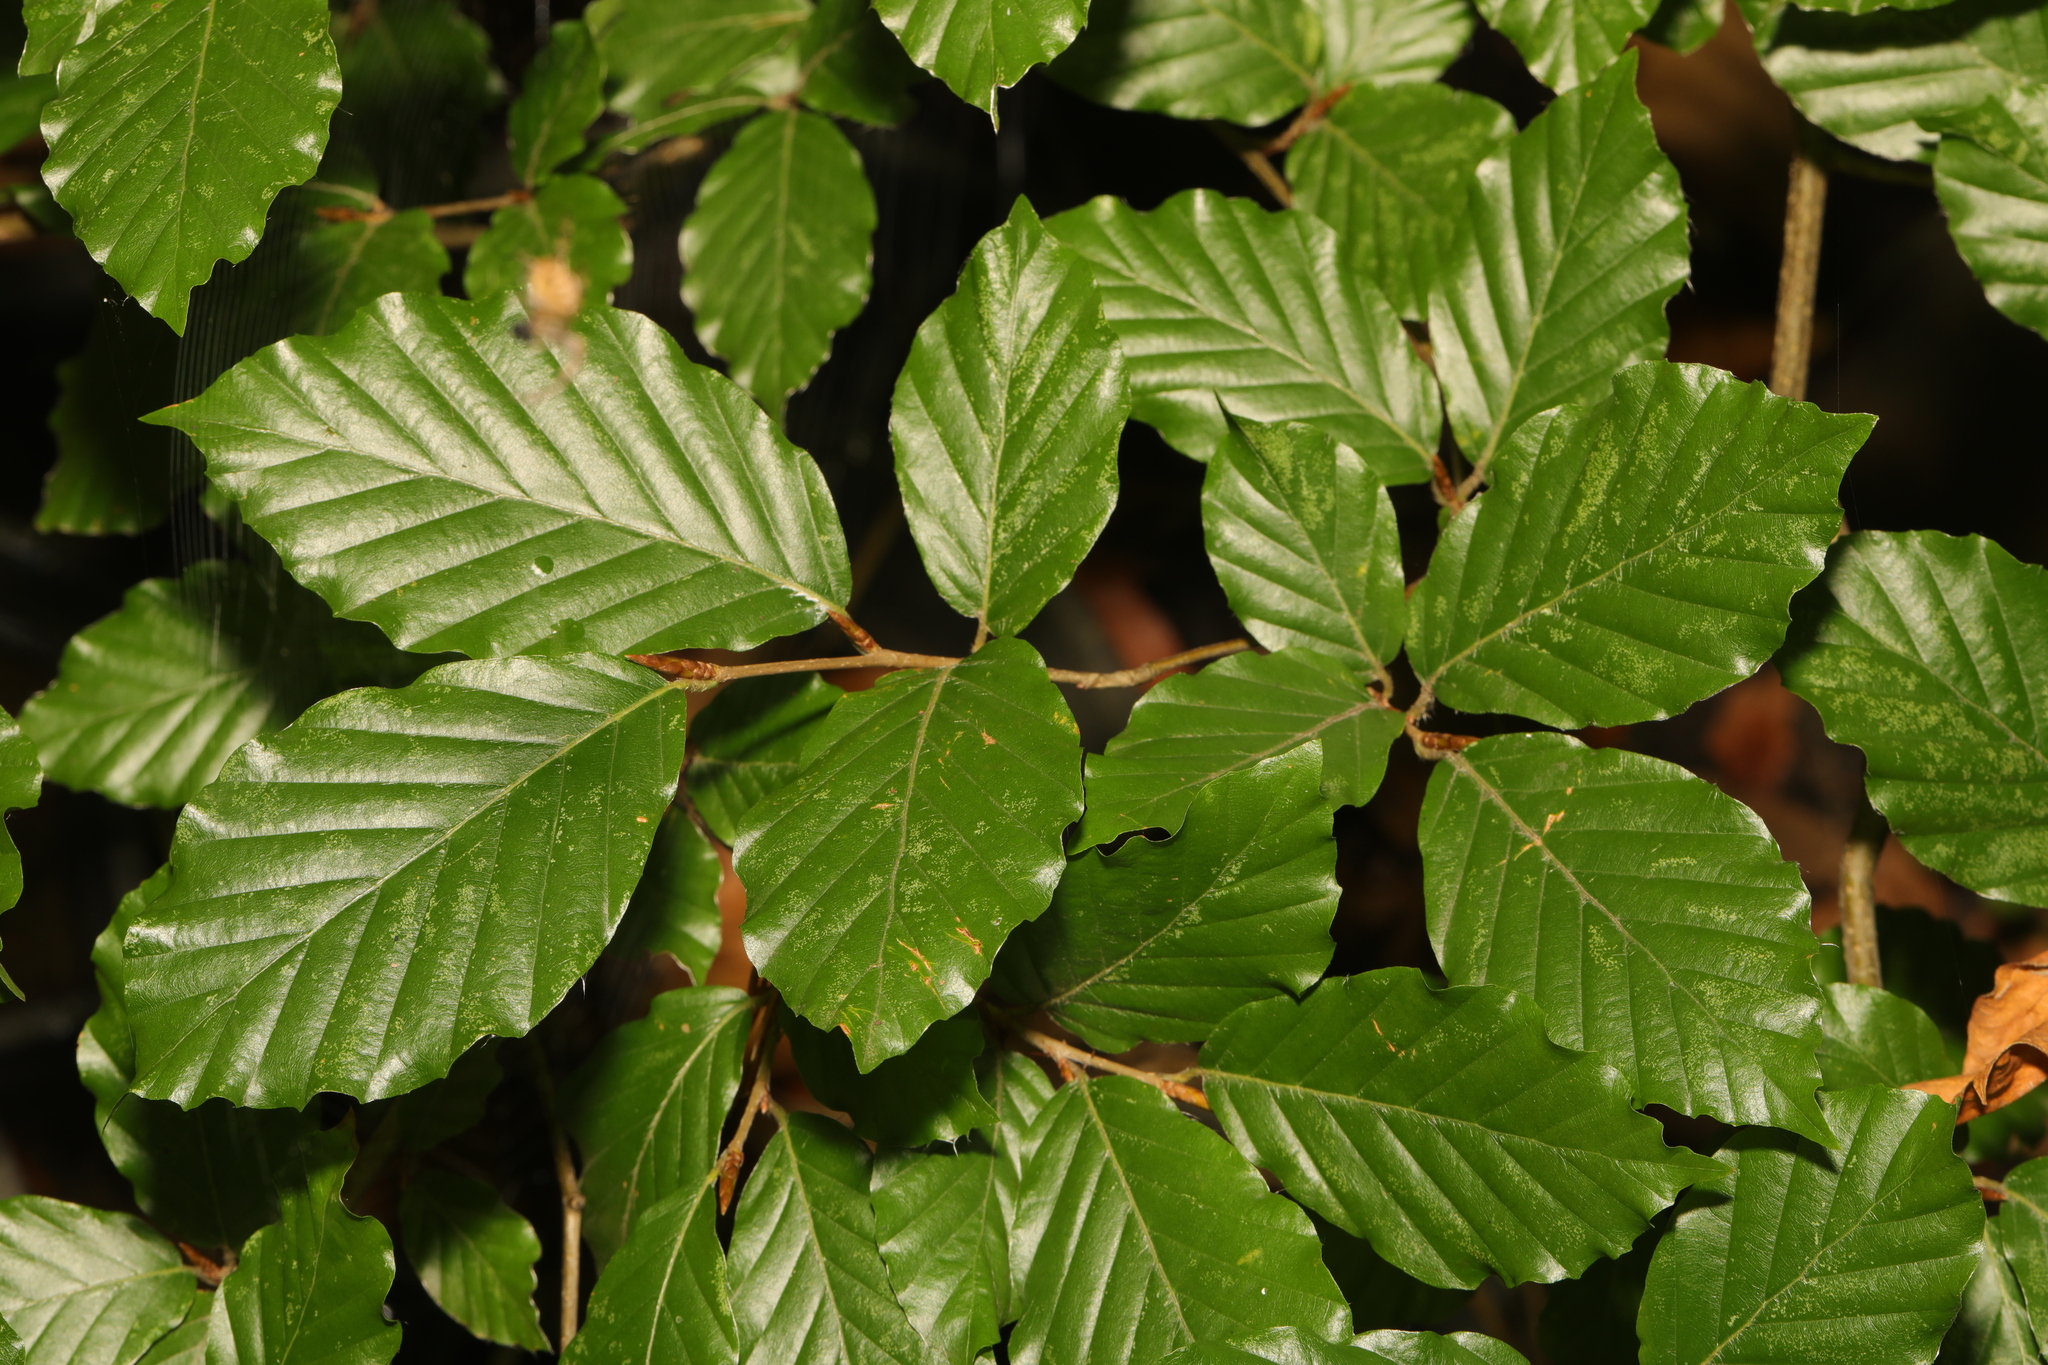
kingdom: Plantae
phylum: Tracheophyta
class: Magnoliopsida
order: Fagales
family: Fagaceae
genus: Fagus
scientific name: Fagus sylvatica
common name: Beech
